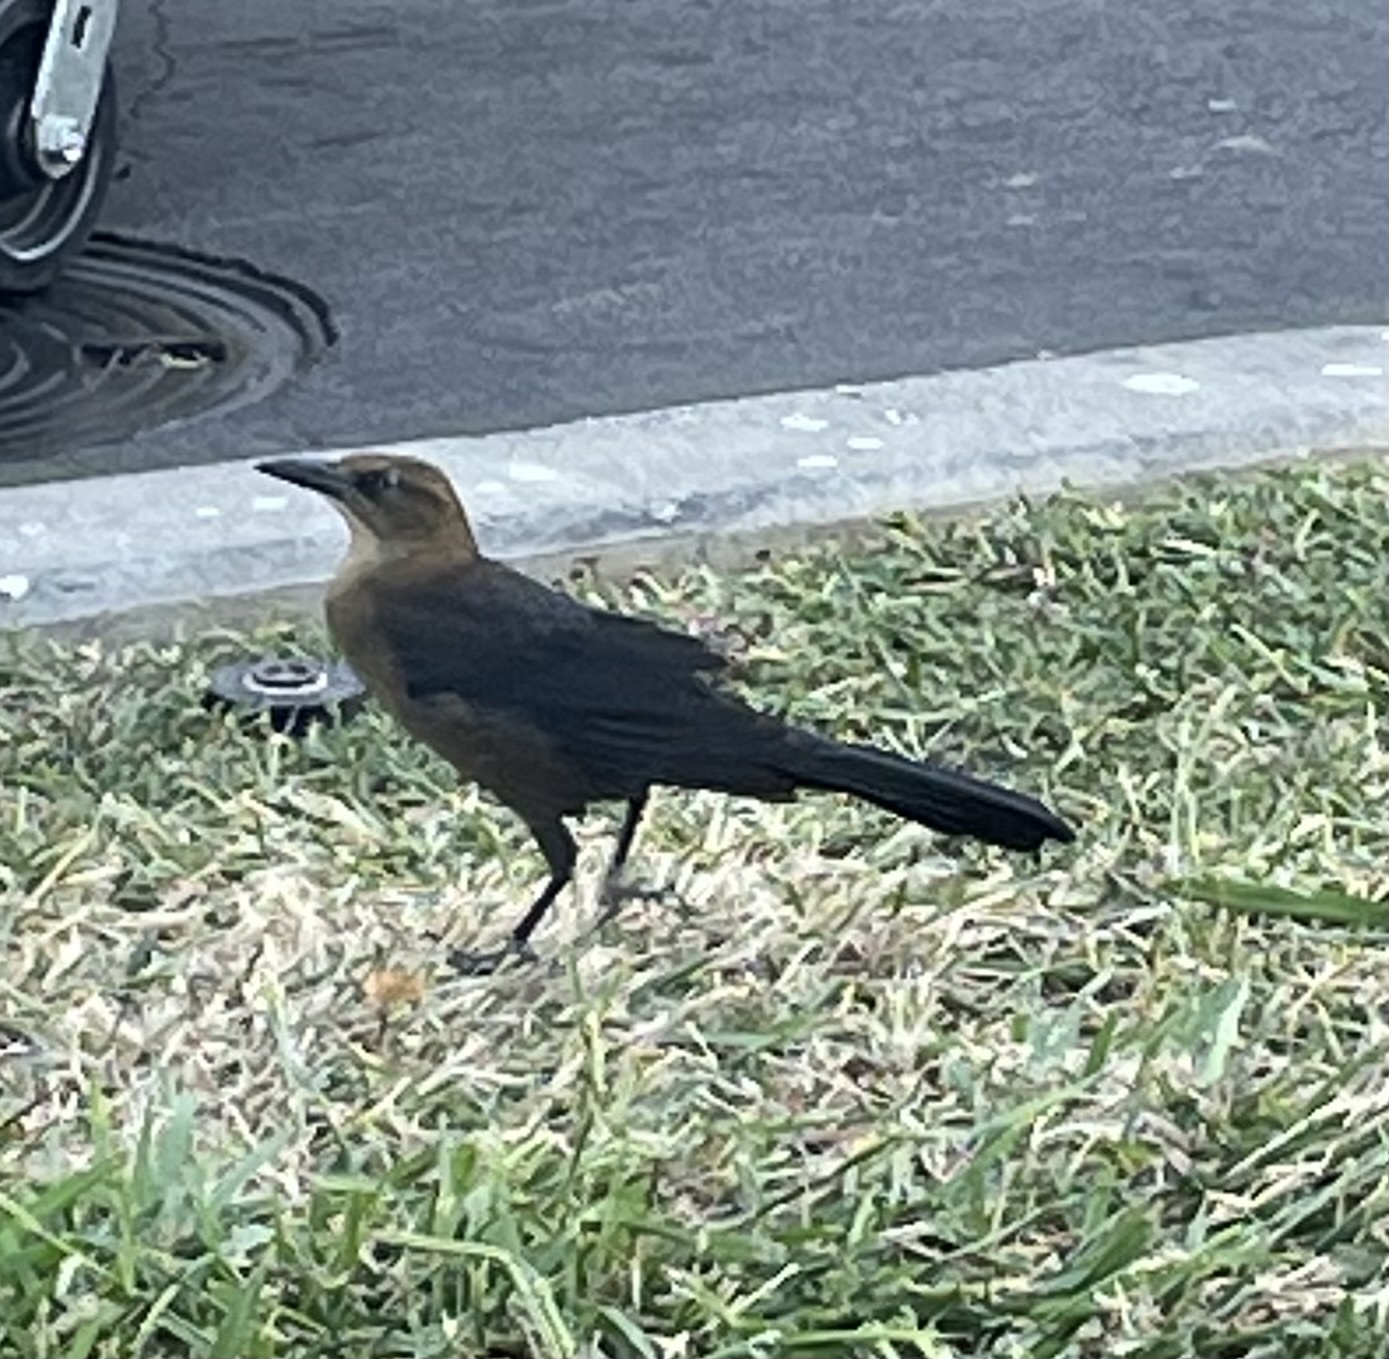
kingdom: Animalia
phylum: Chordata
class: Aves
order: Passeriformes
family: Icteridae
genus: Quiscalus
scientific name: Quiscalus mexicanus
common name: Great-tailed grackle
